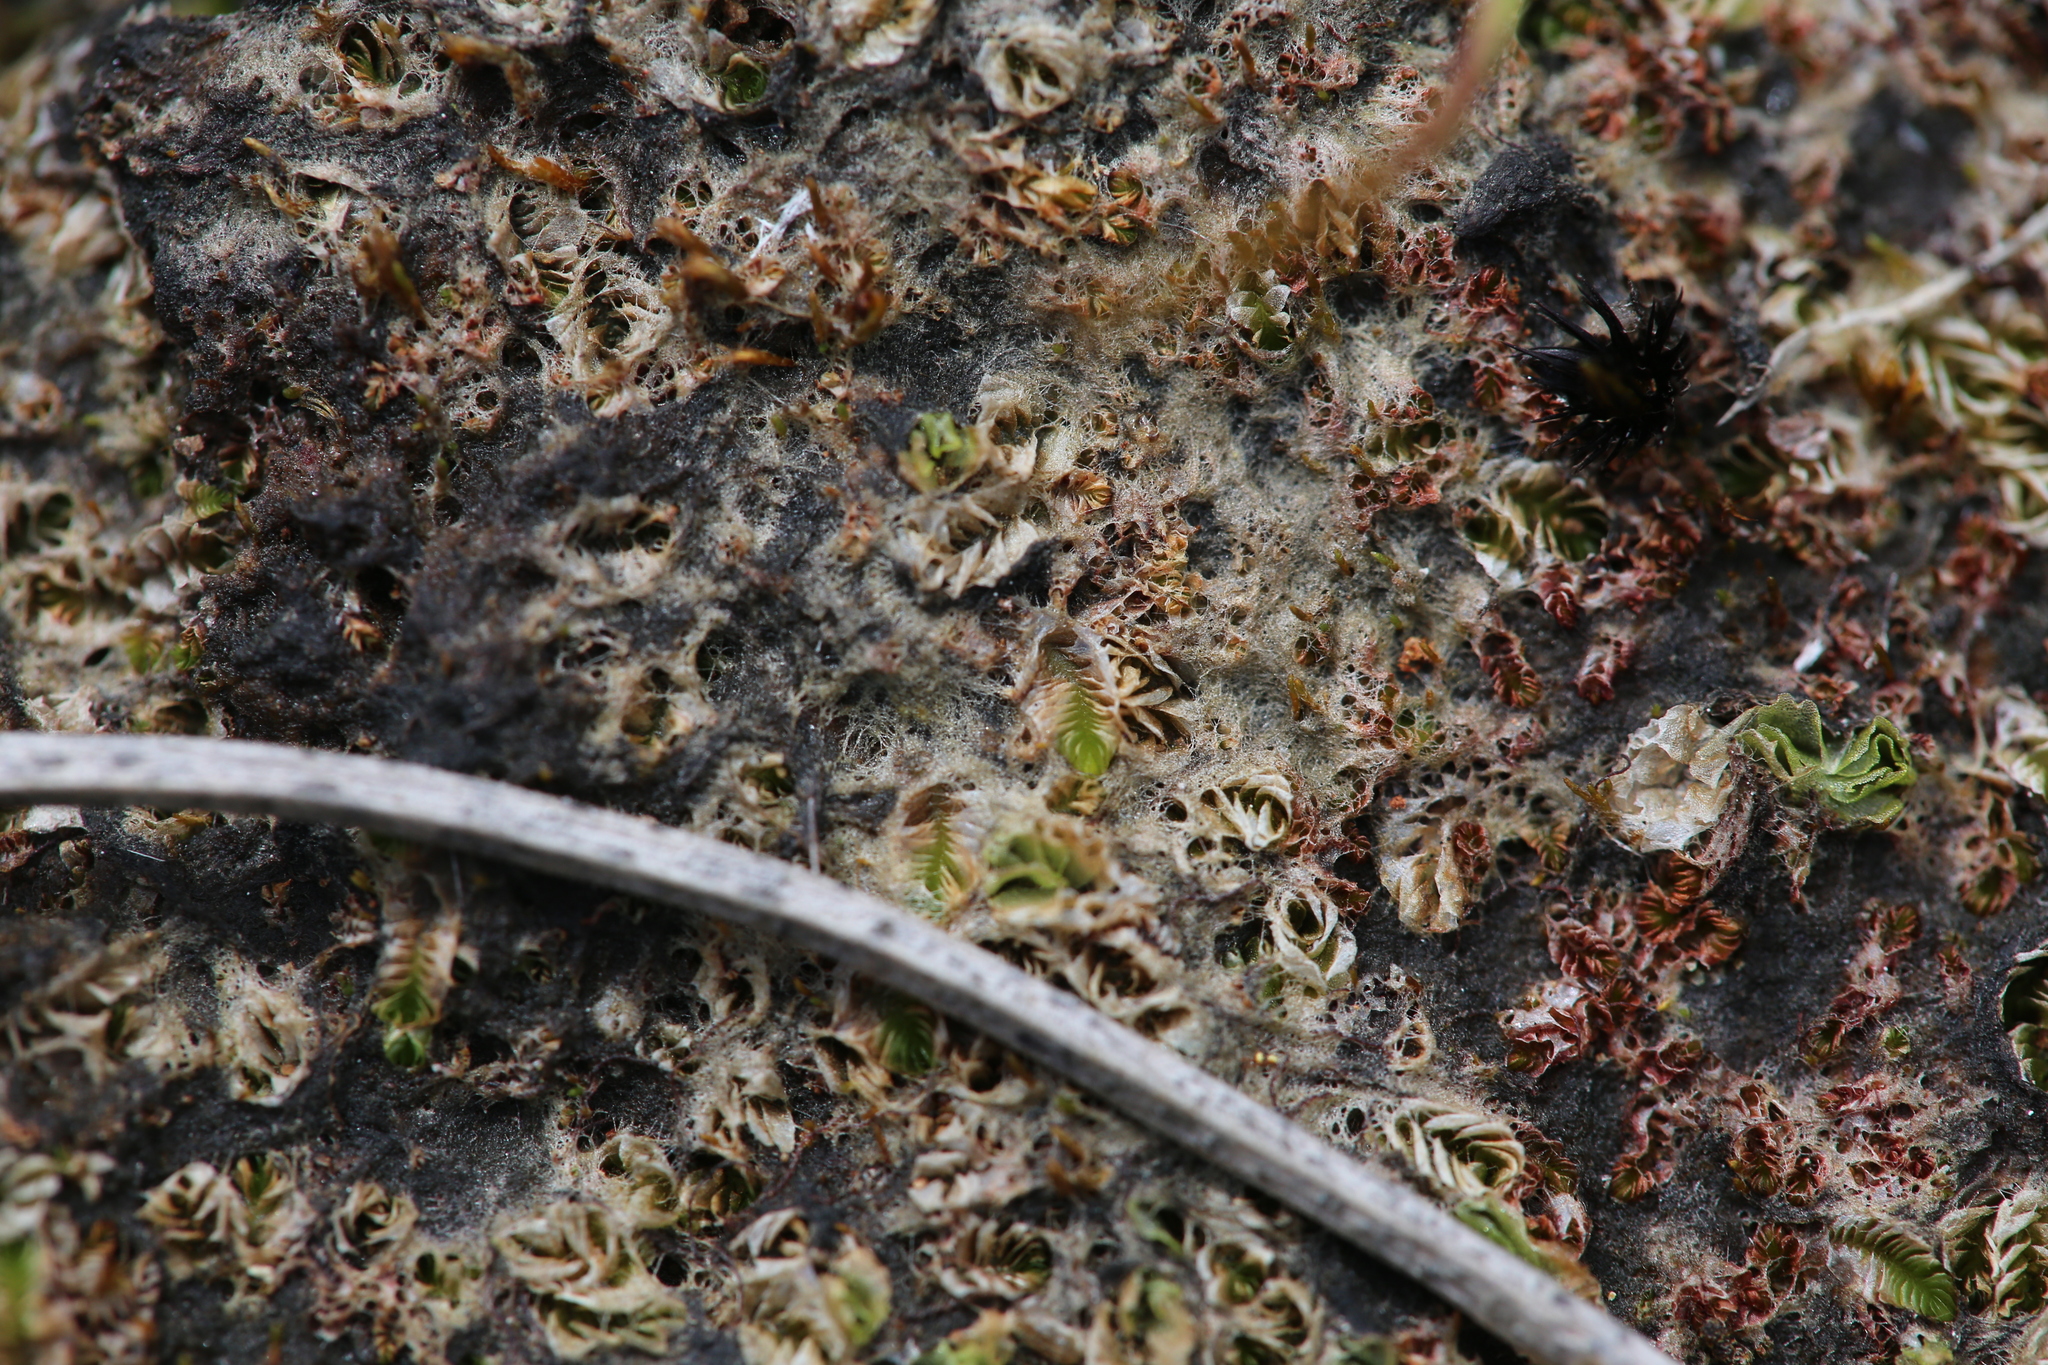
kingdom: Plantae
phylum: Marchantiophyta
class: Jungermanniopsida
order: Jungermanniales
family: Acrobolbaceae
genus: Lethocolea
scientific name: Lethocolea pansa
